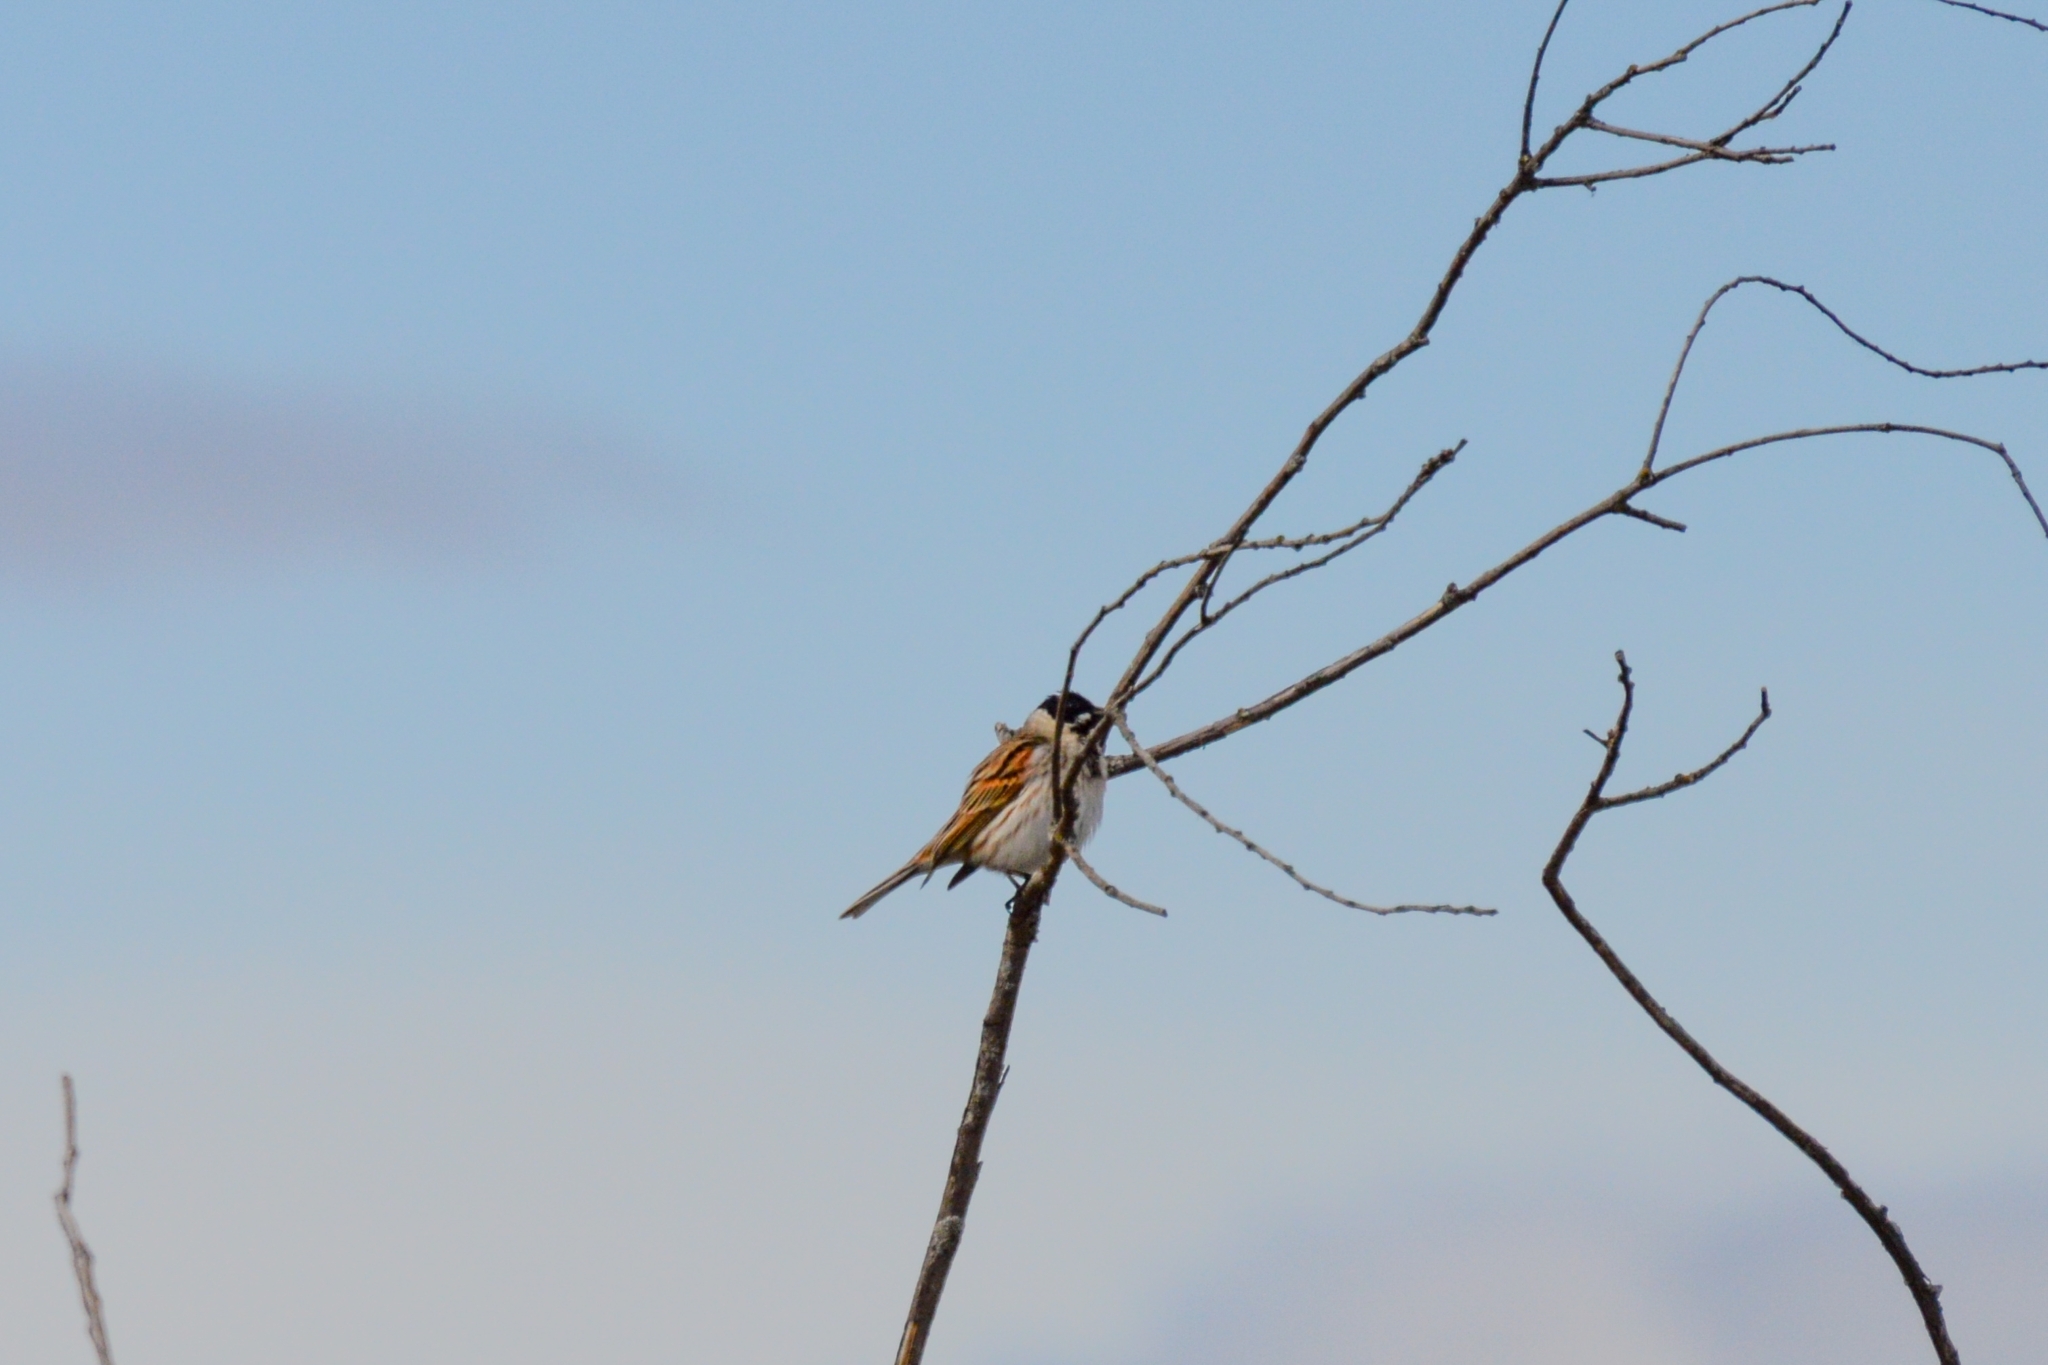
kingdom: Animalia
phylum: Chordata
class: Aves
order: Passeriformes
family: Emberizidae
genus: Emberiza
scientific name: Emberiza schoeniclus
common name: Reed bunting
